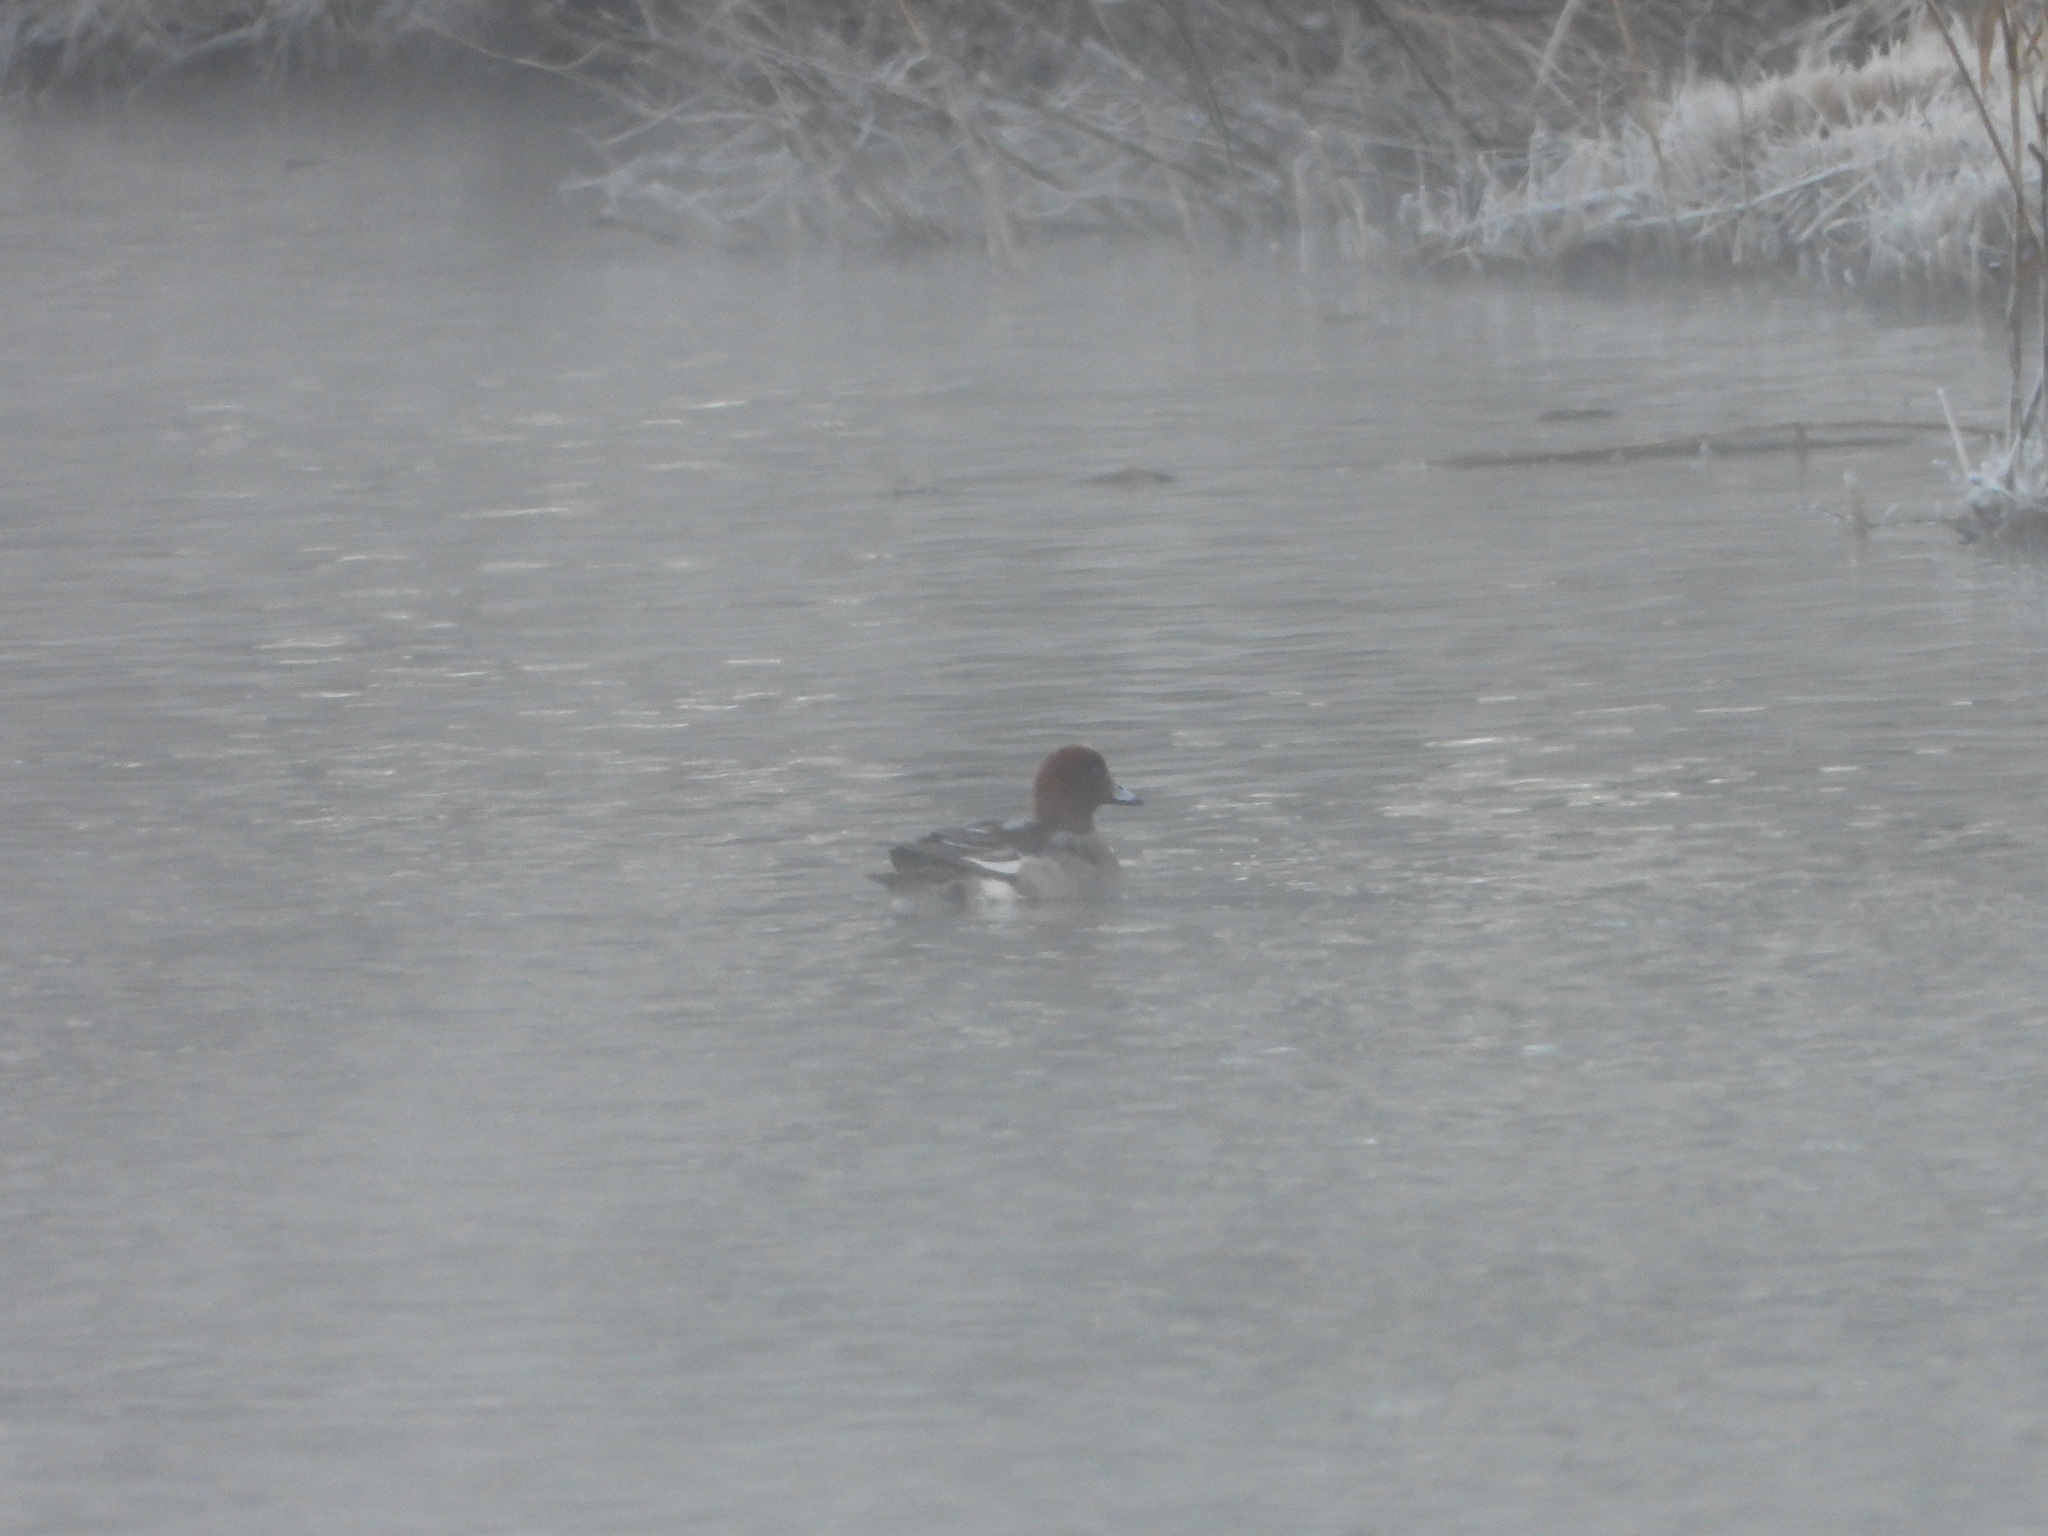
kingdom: Animalia
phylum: Chordata
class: Aves
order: Anseriformes
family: Anatidae
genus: Mareca
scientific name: Mareca penelope
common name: Eurasian wigeon
